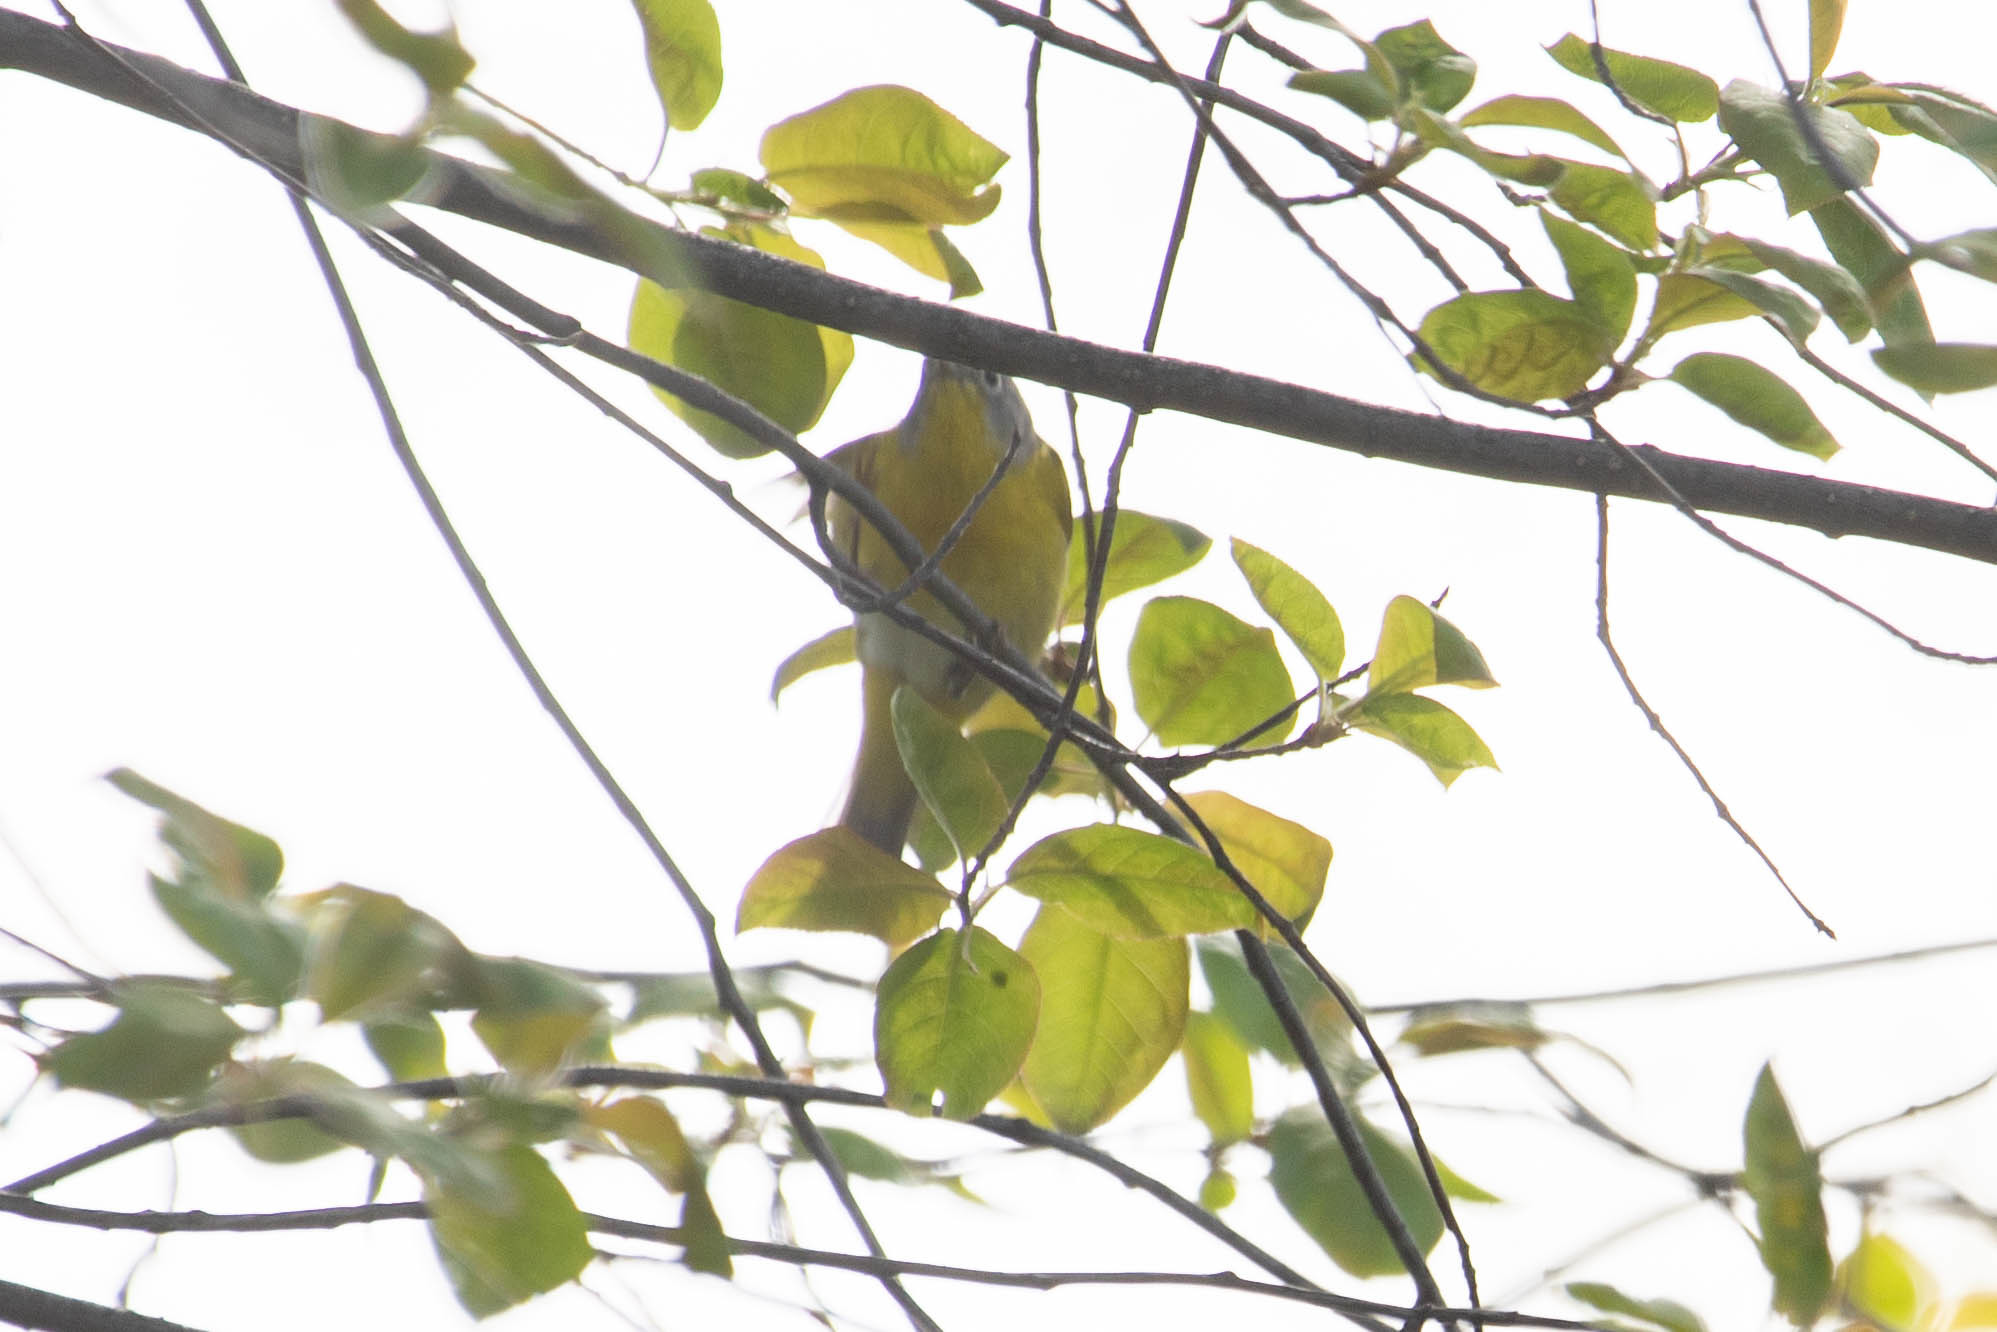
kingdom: Animalia
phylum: Chordata
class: Aves
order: Passeriformes
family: Parulidae
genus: Leiothlypis
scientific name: Leiothlypis ruficapilla
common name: Nashville warbler
